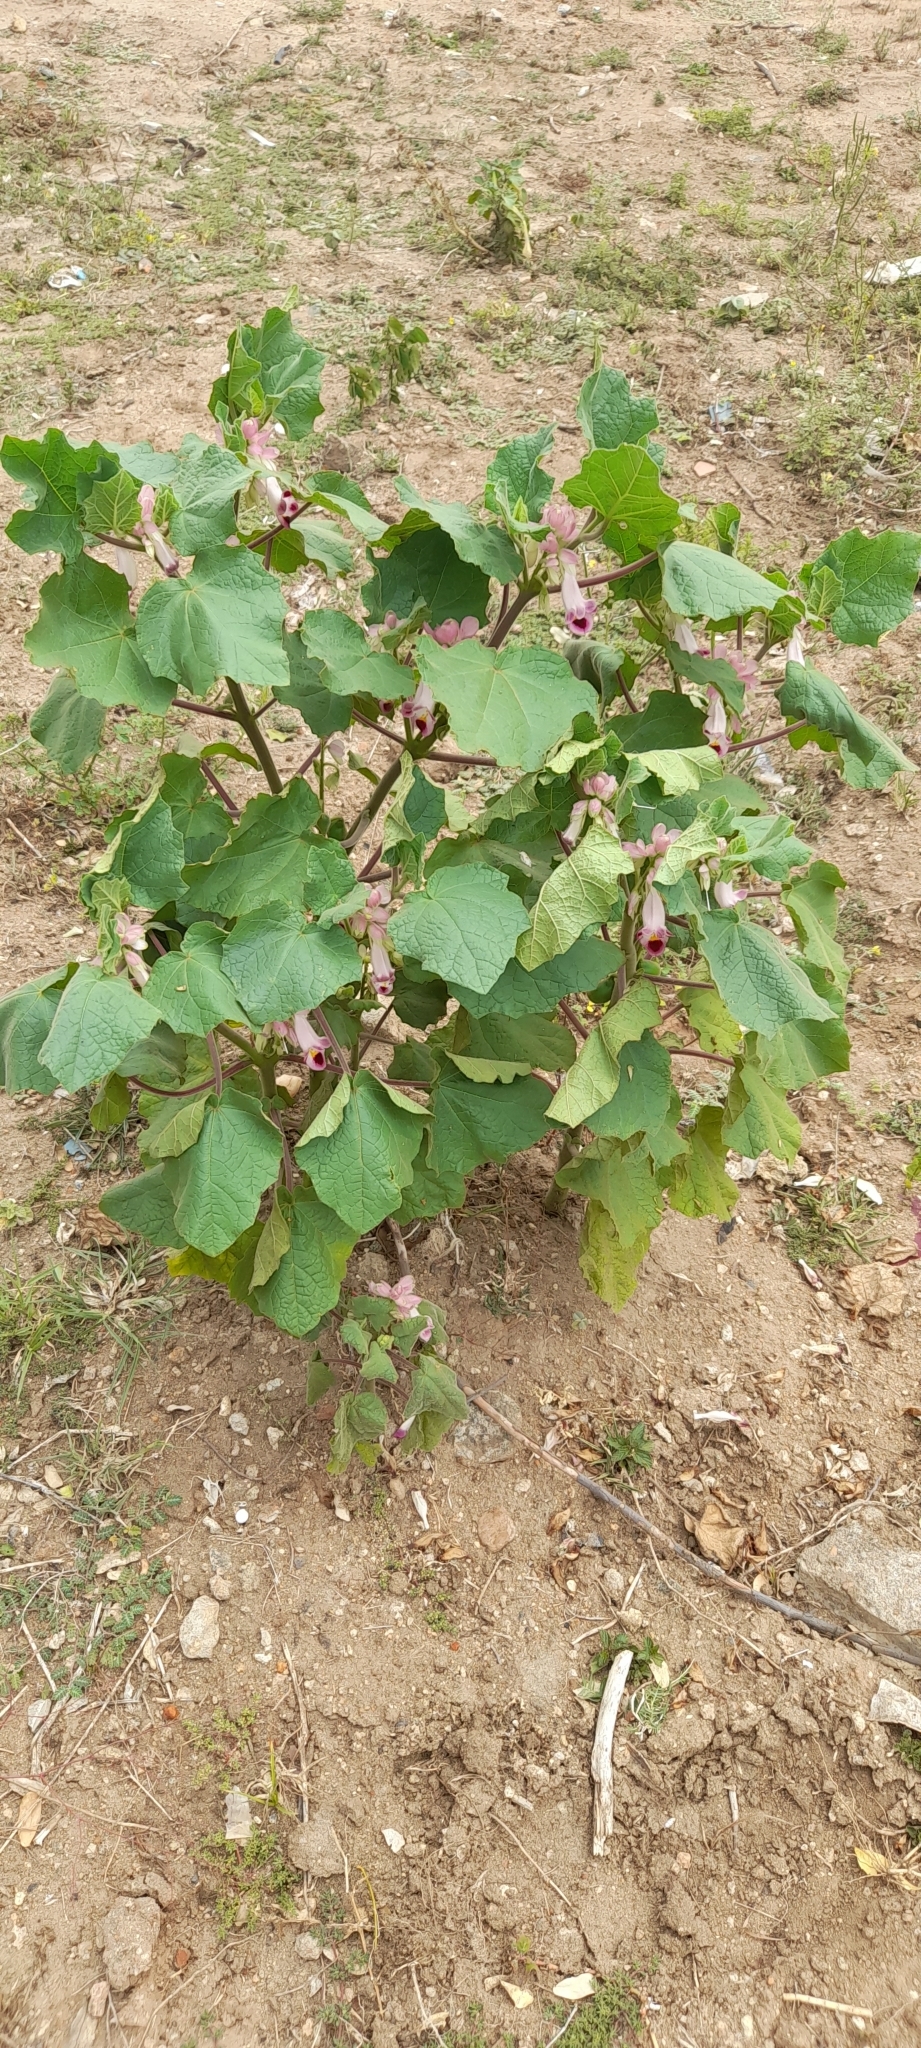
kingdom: Plantae
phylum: Tracheophyta
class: Magnoliopsida
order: Lamiales
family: Martyniaceae
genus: Martynia
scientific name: Martynia annua
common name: Tiger's-claw
